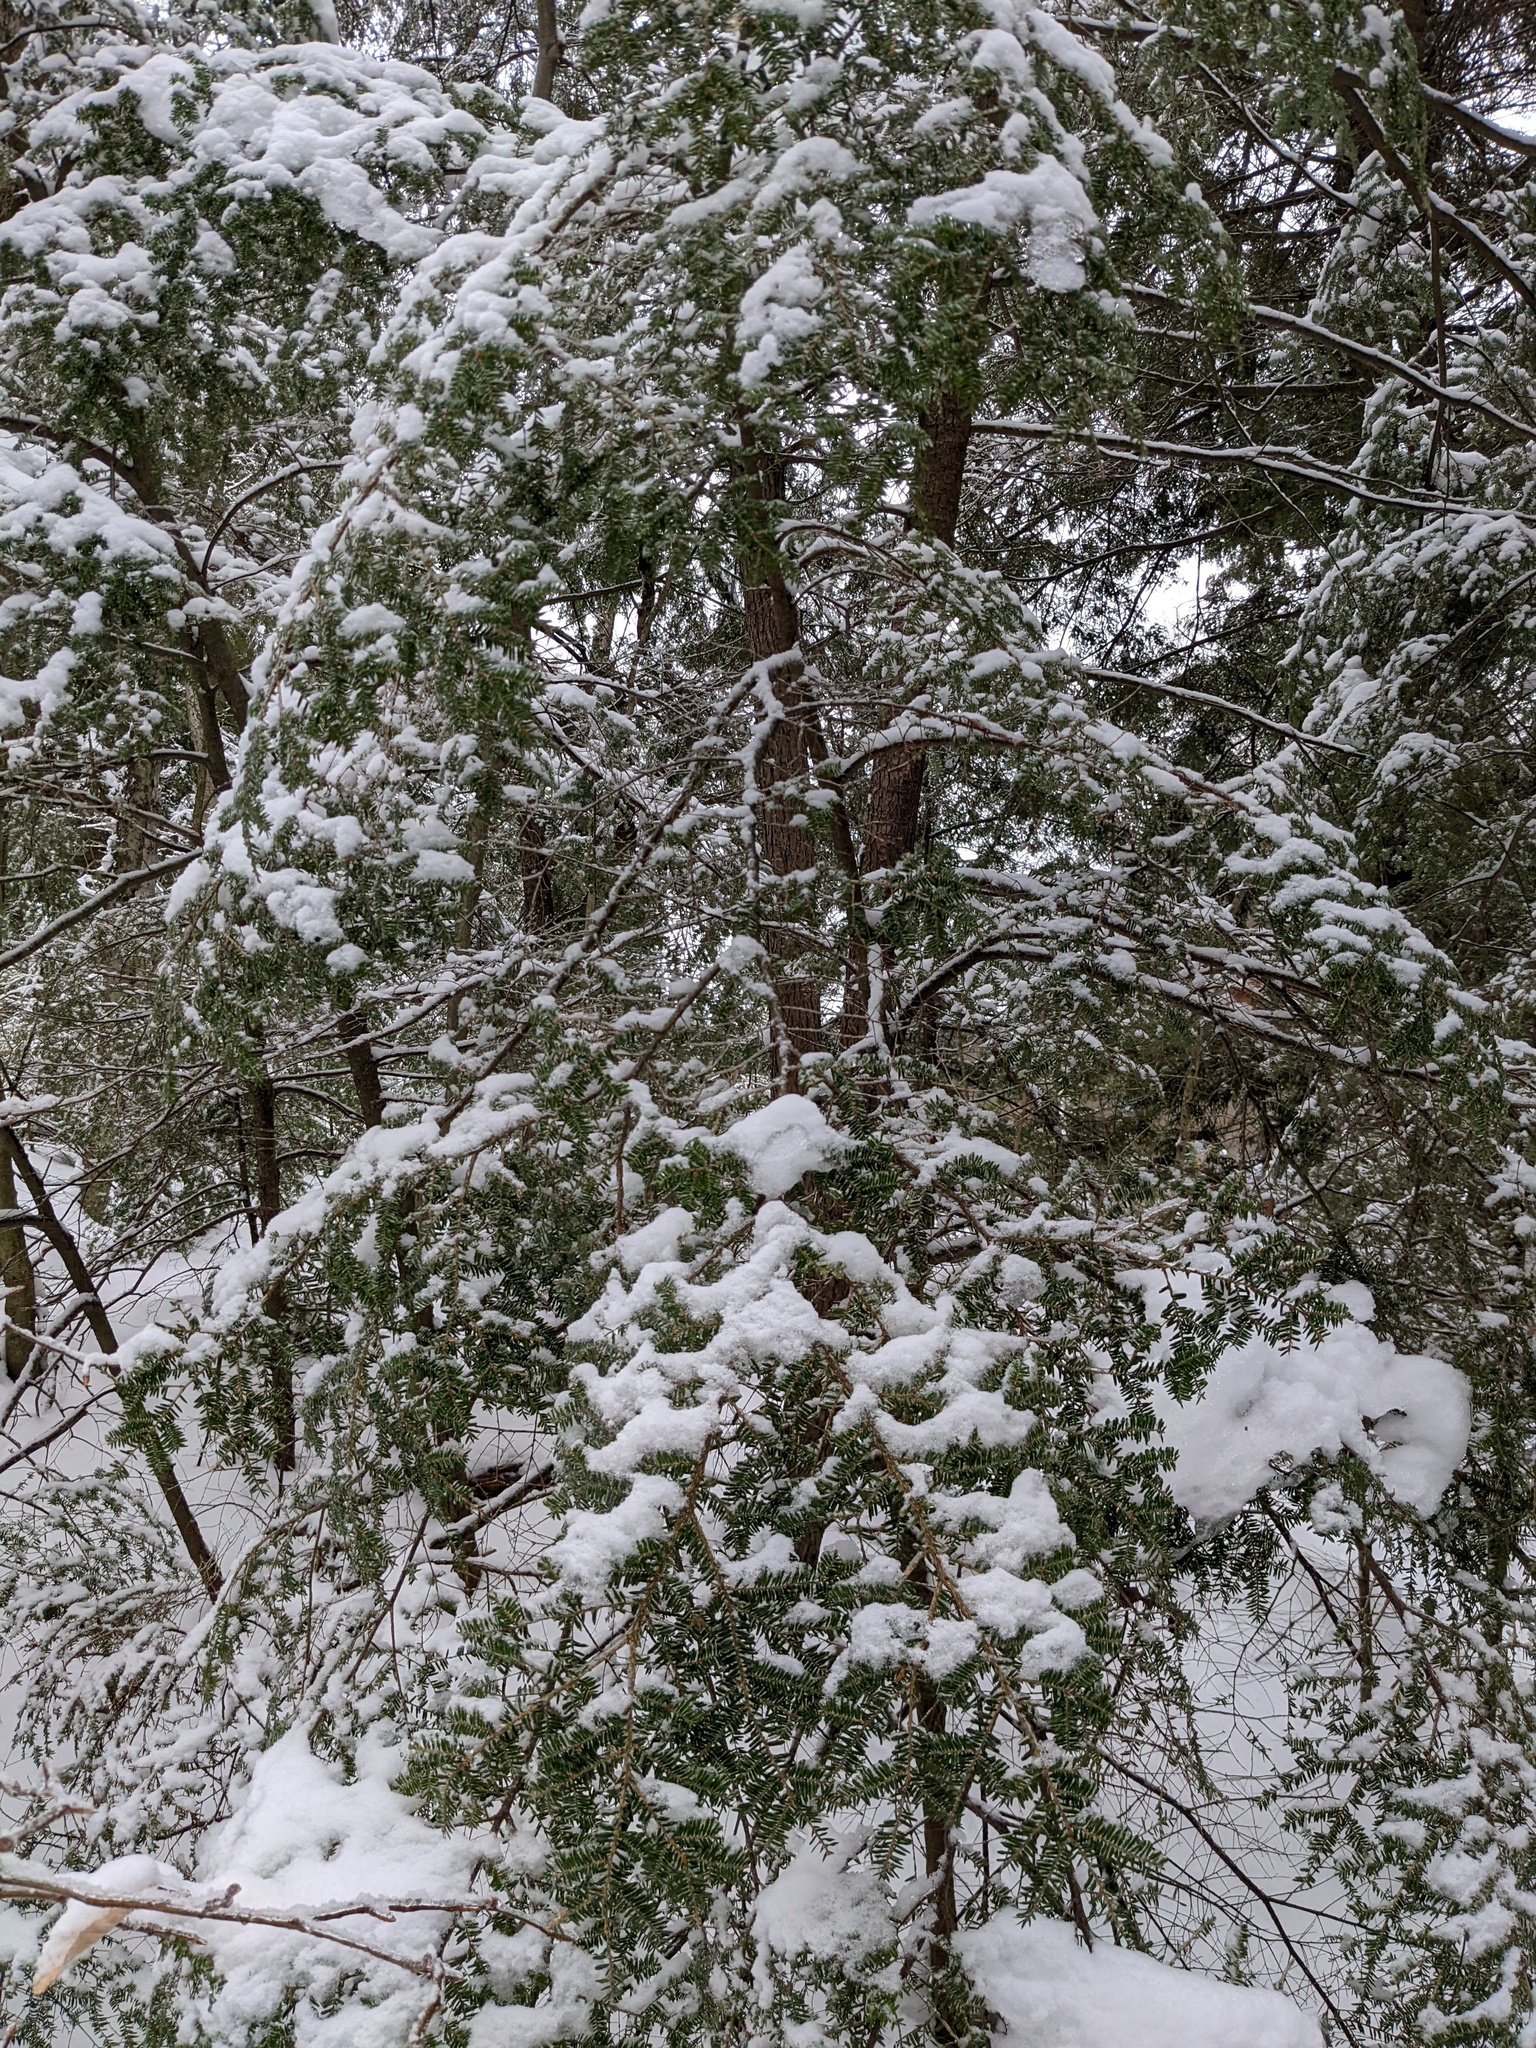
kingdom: Plantae
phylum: Tracheophyta
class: Pinopsida
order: Pinales
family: Pinaceae
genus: Tsuga
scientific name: Tsuga canadensis
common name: Eastern hemlock
